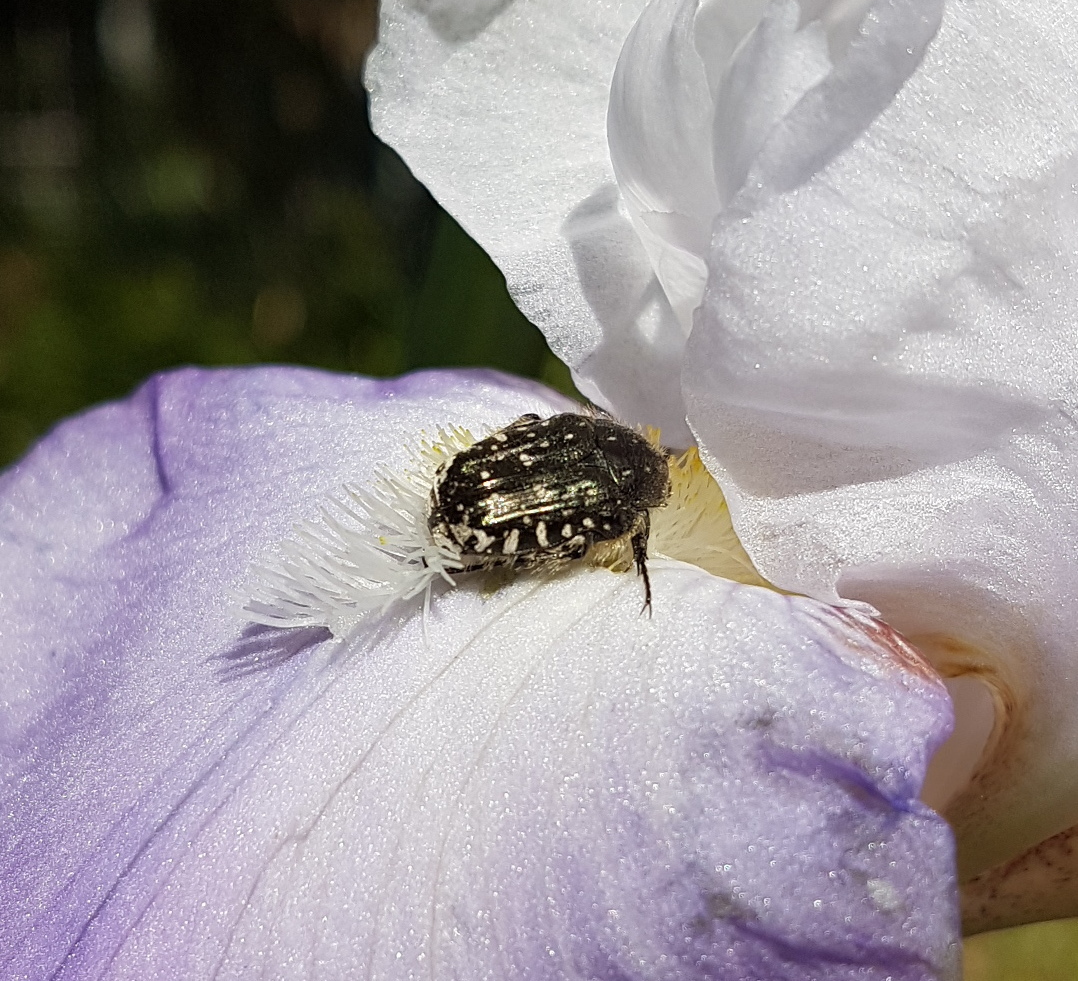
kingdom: Animalia
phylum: Arthropoda
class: Insecta
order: Coleoptera
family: Scarabaeidae
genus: Oxythyrea
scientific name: Oxythyrea funesta
